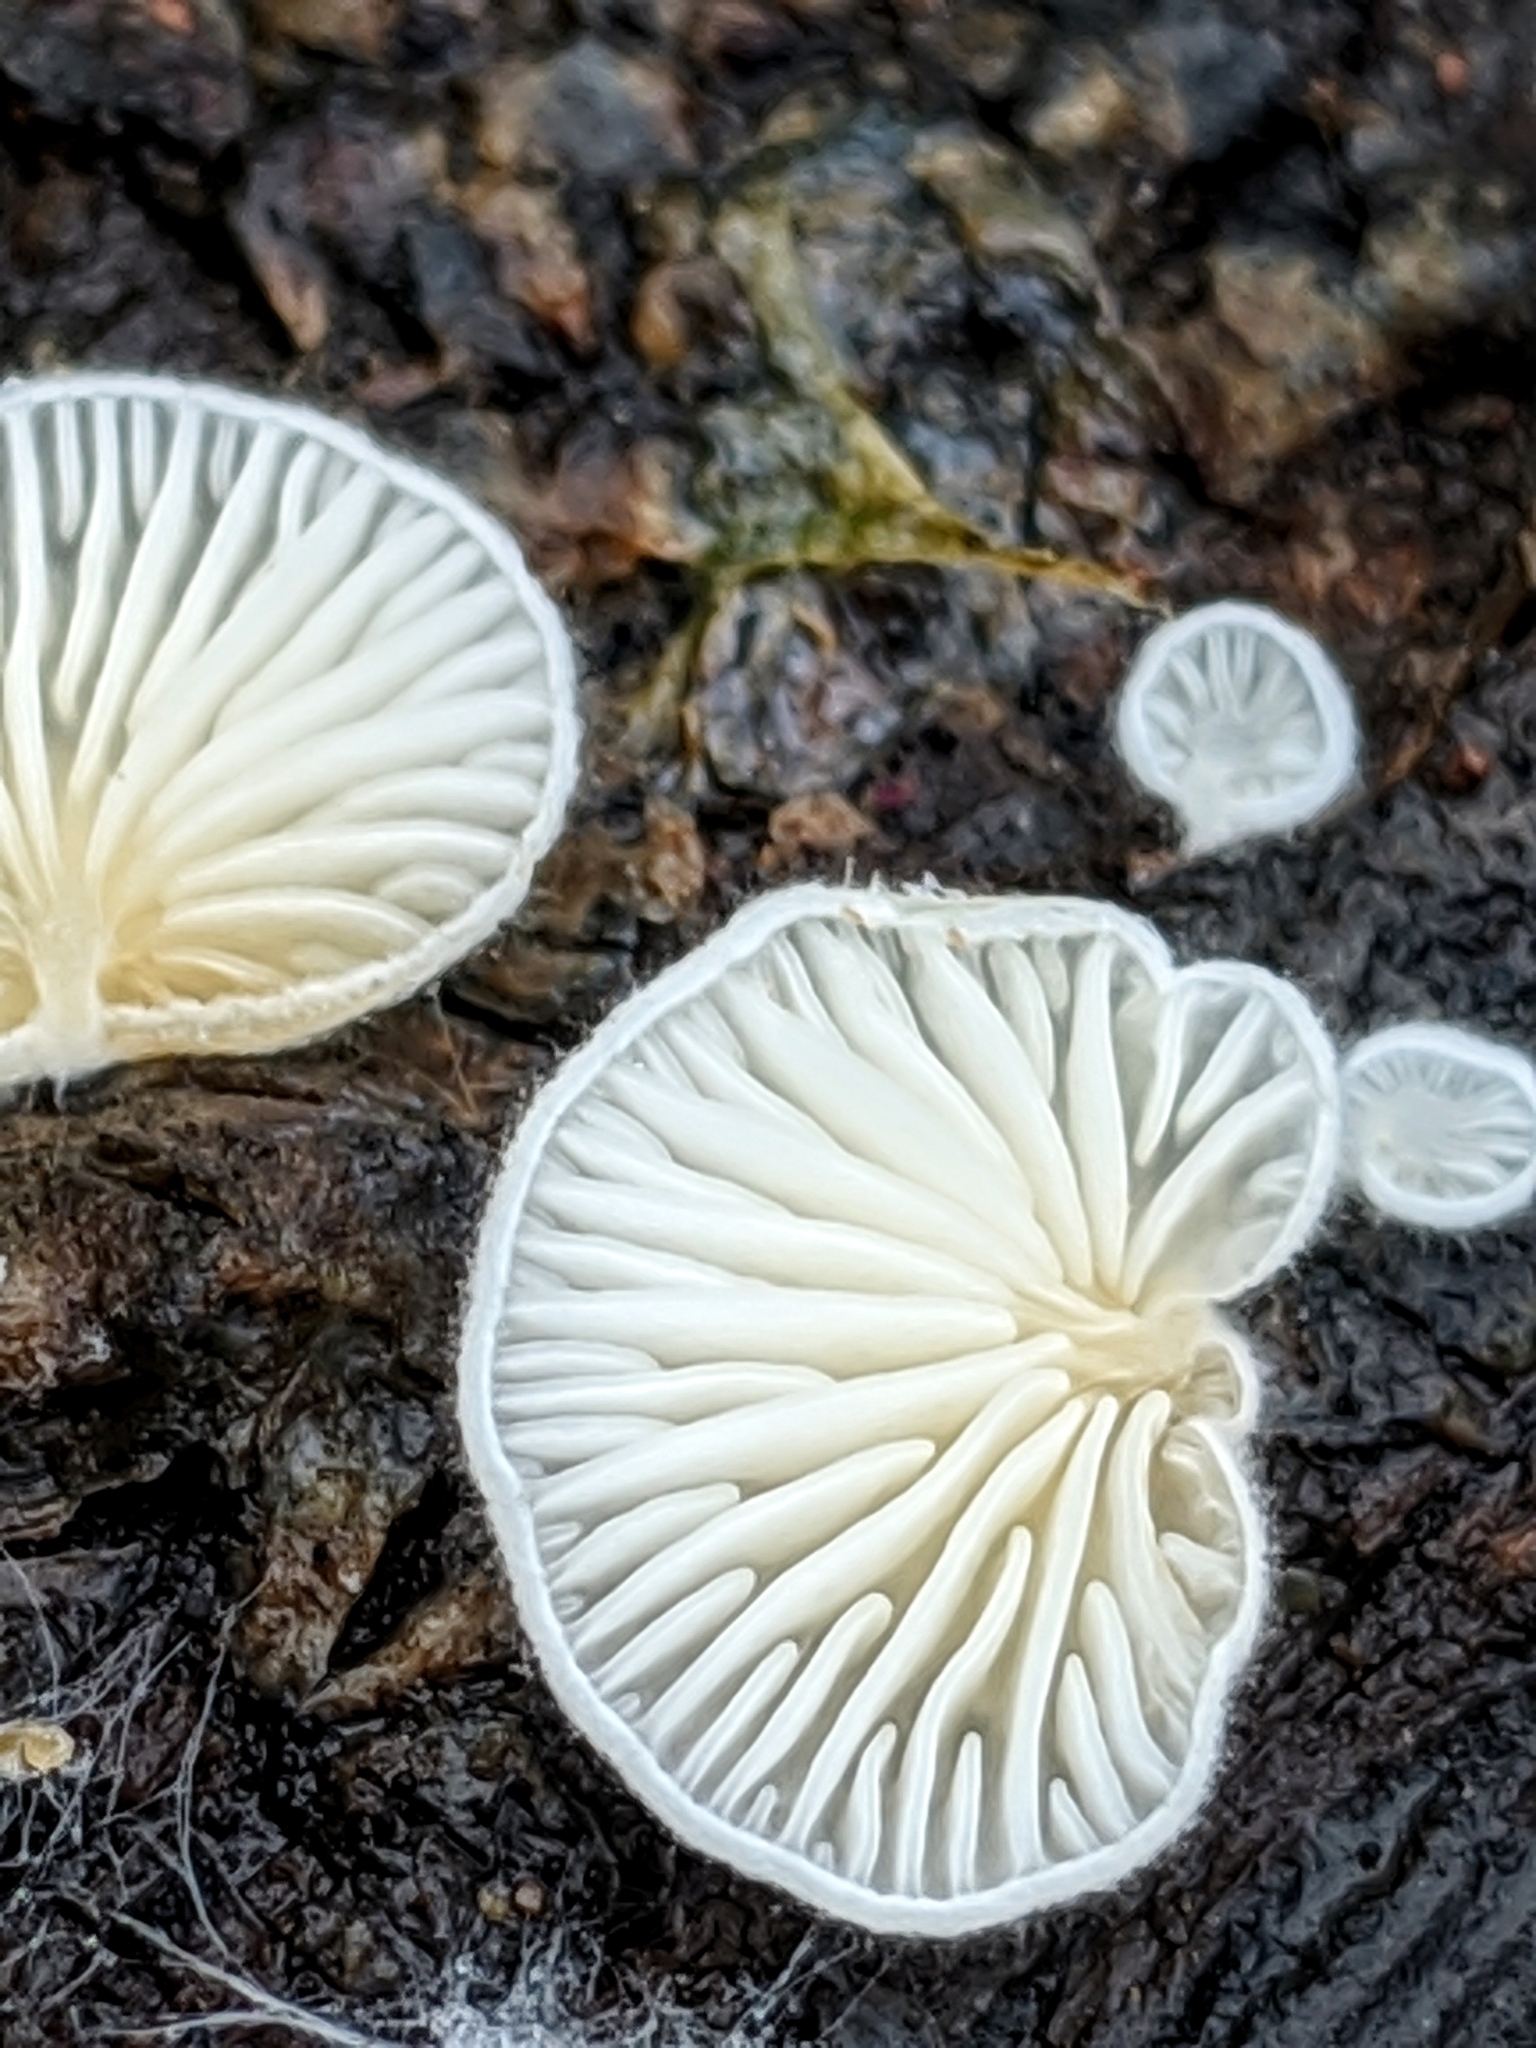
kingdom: Fungi
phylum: Basidiomycota
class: Agaricomycetes
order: Agaricales
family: Entolomataceae
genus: Clitopilus
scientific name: Clitopilus hobsonii
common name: Miller's oysterling
